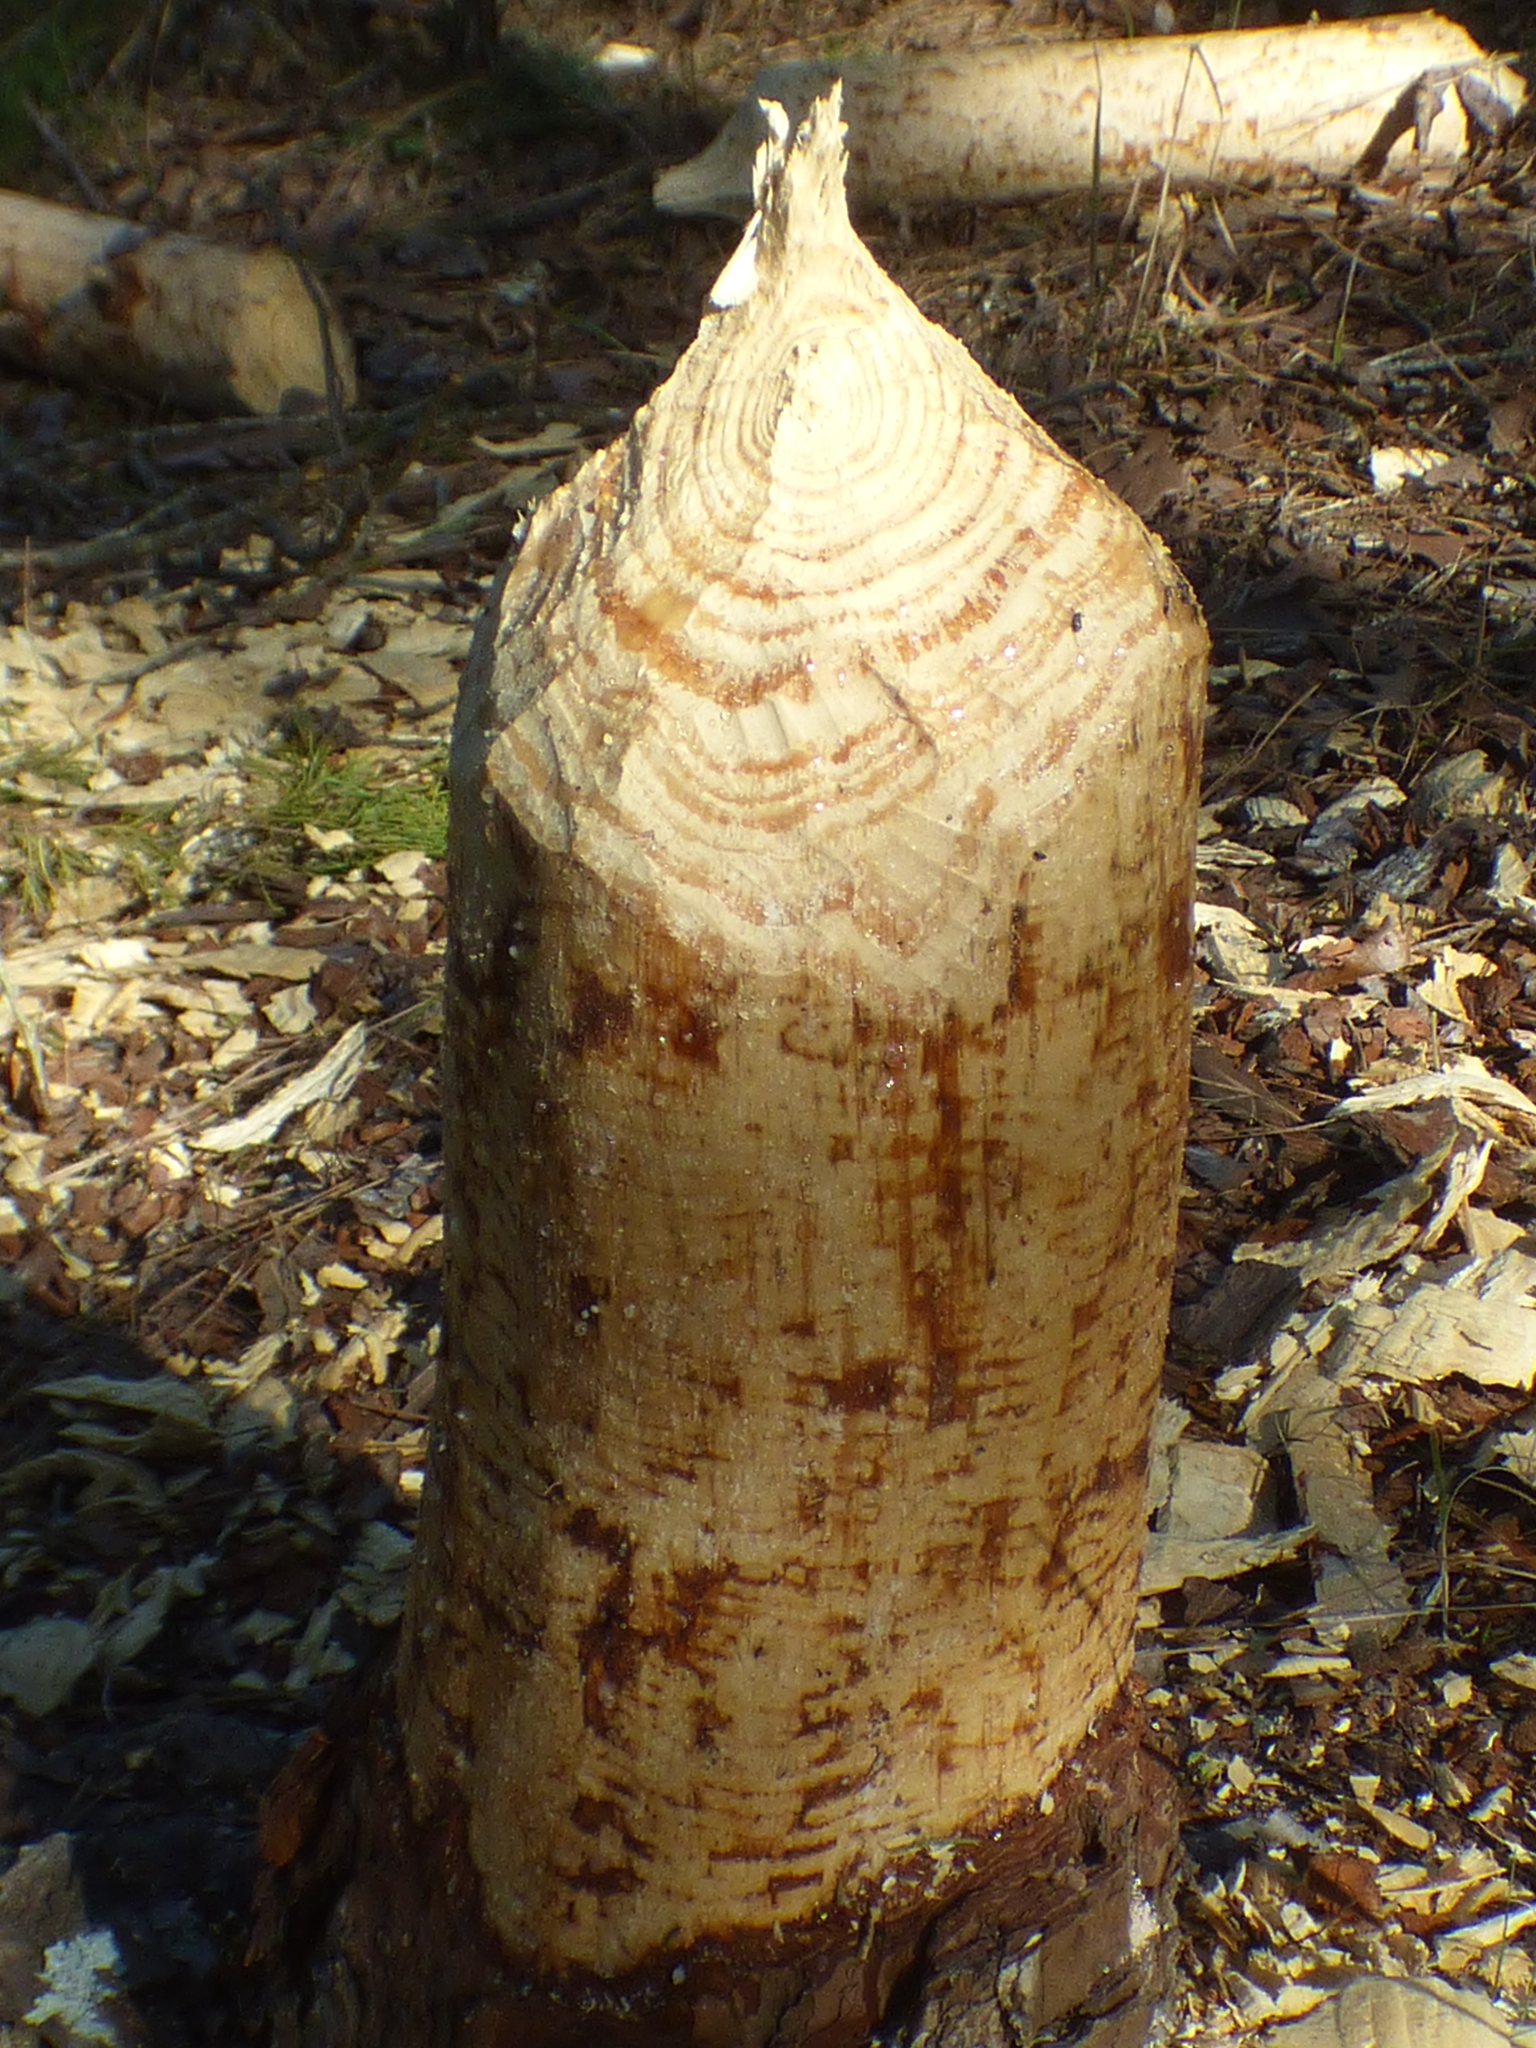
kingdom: Animalia
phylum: Chordata
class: Mammalia
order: Rodentia
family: Castoridae
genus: Castor
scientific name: Castor canadensis
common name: American beaver
